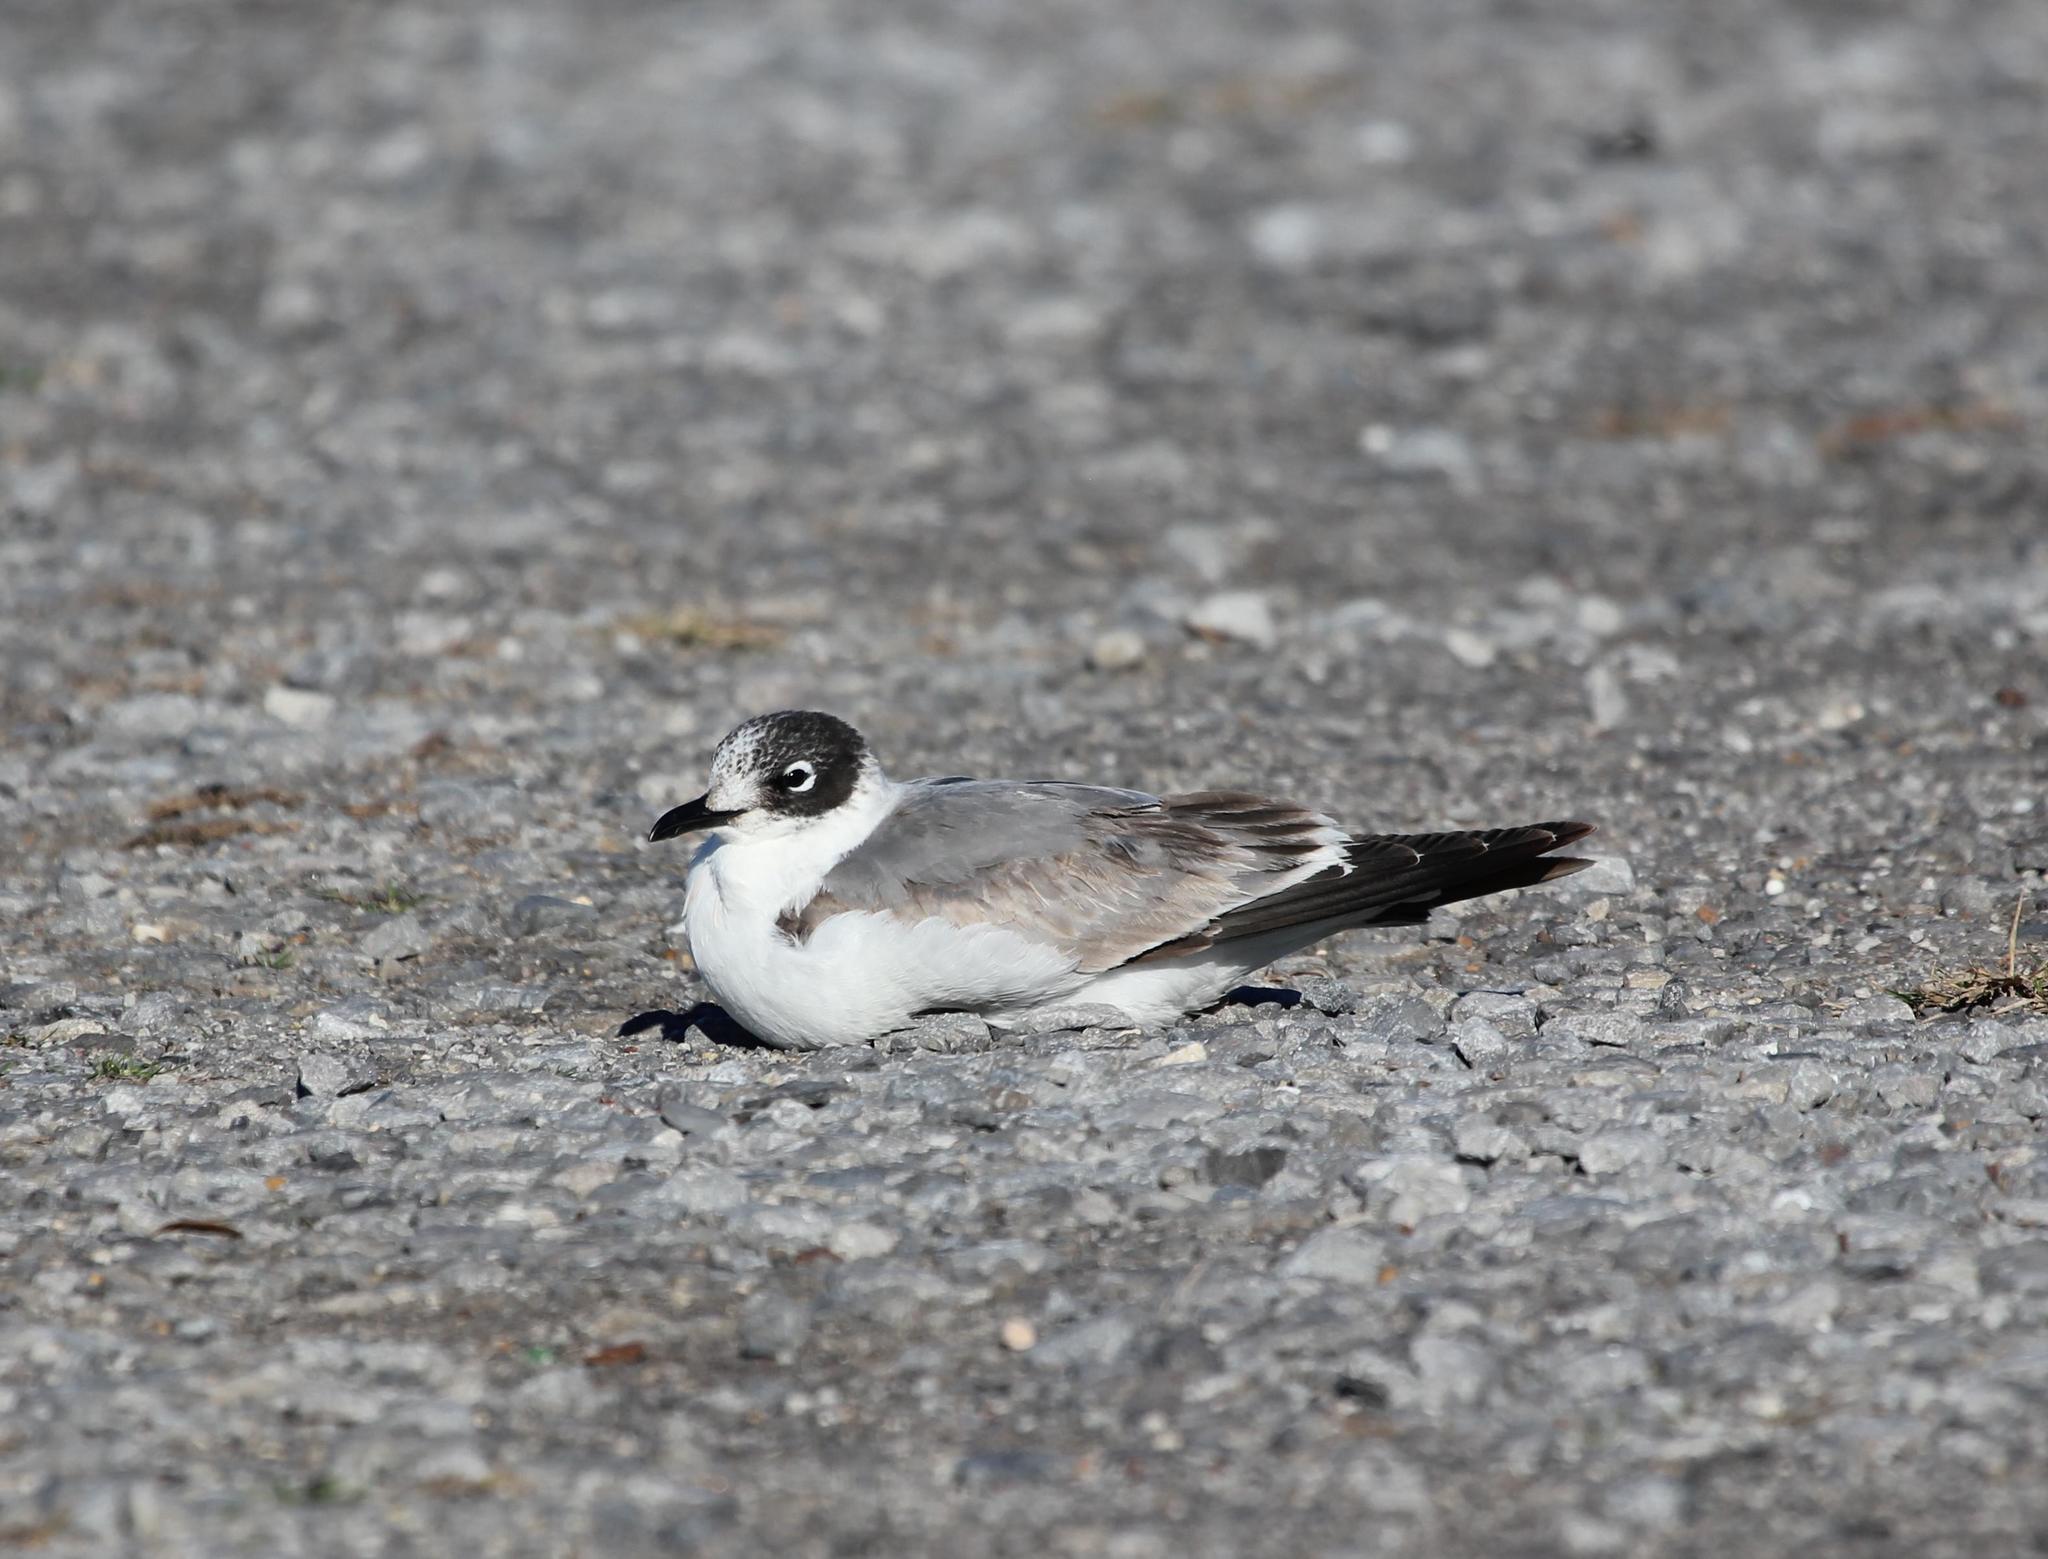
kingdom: Animalia
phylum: Chordata
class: Aves
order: Charadriiformes
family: Laridae
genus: Leucophaeus
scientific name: Leucophaeus pipixcan
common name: Franklin's gull
